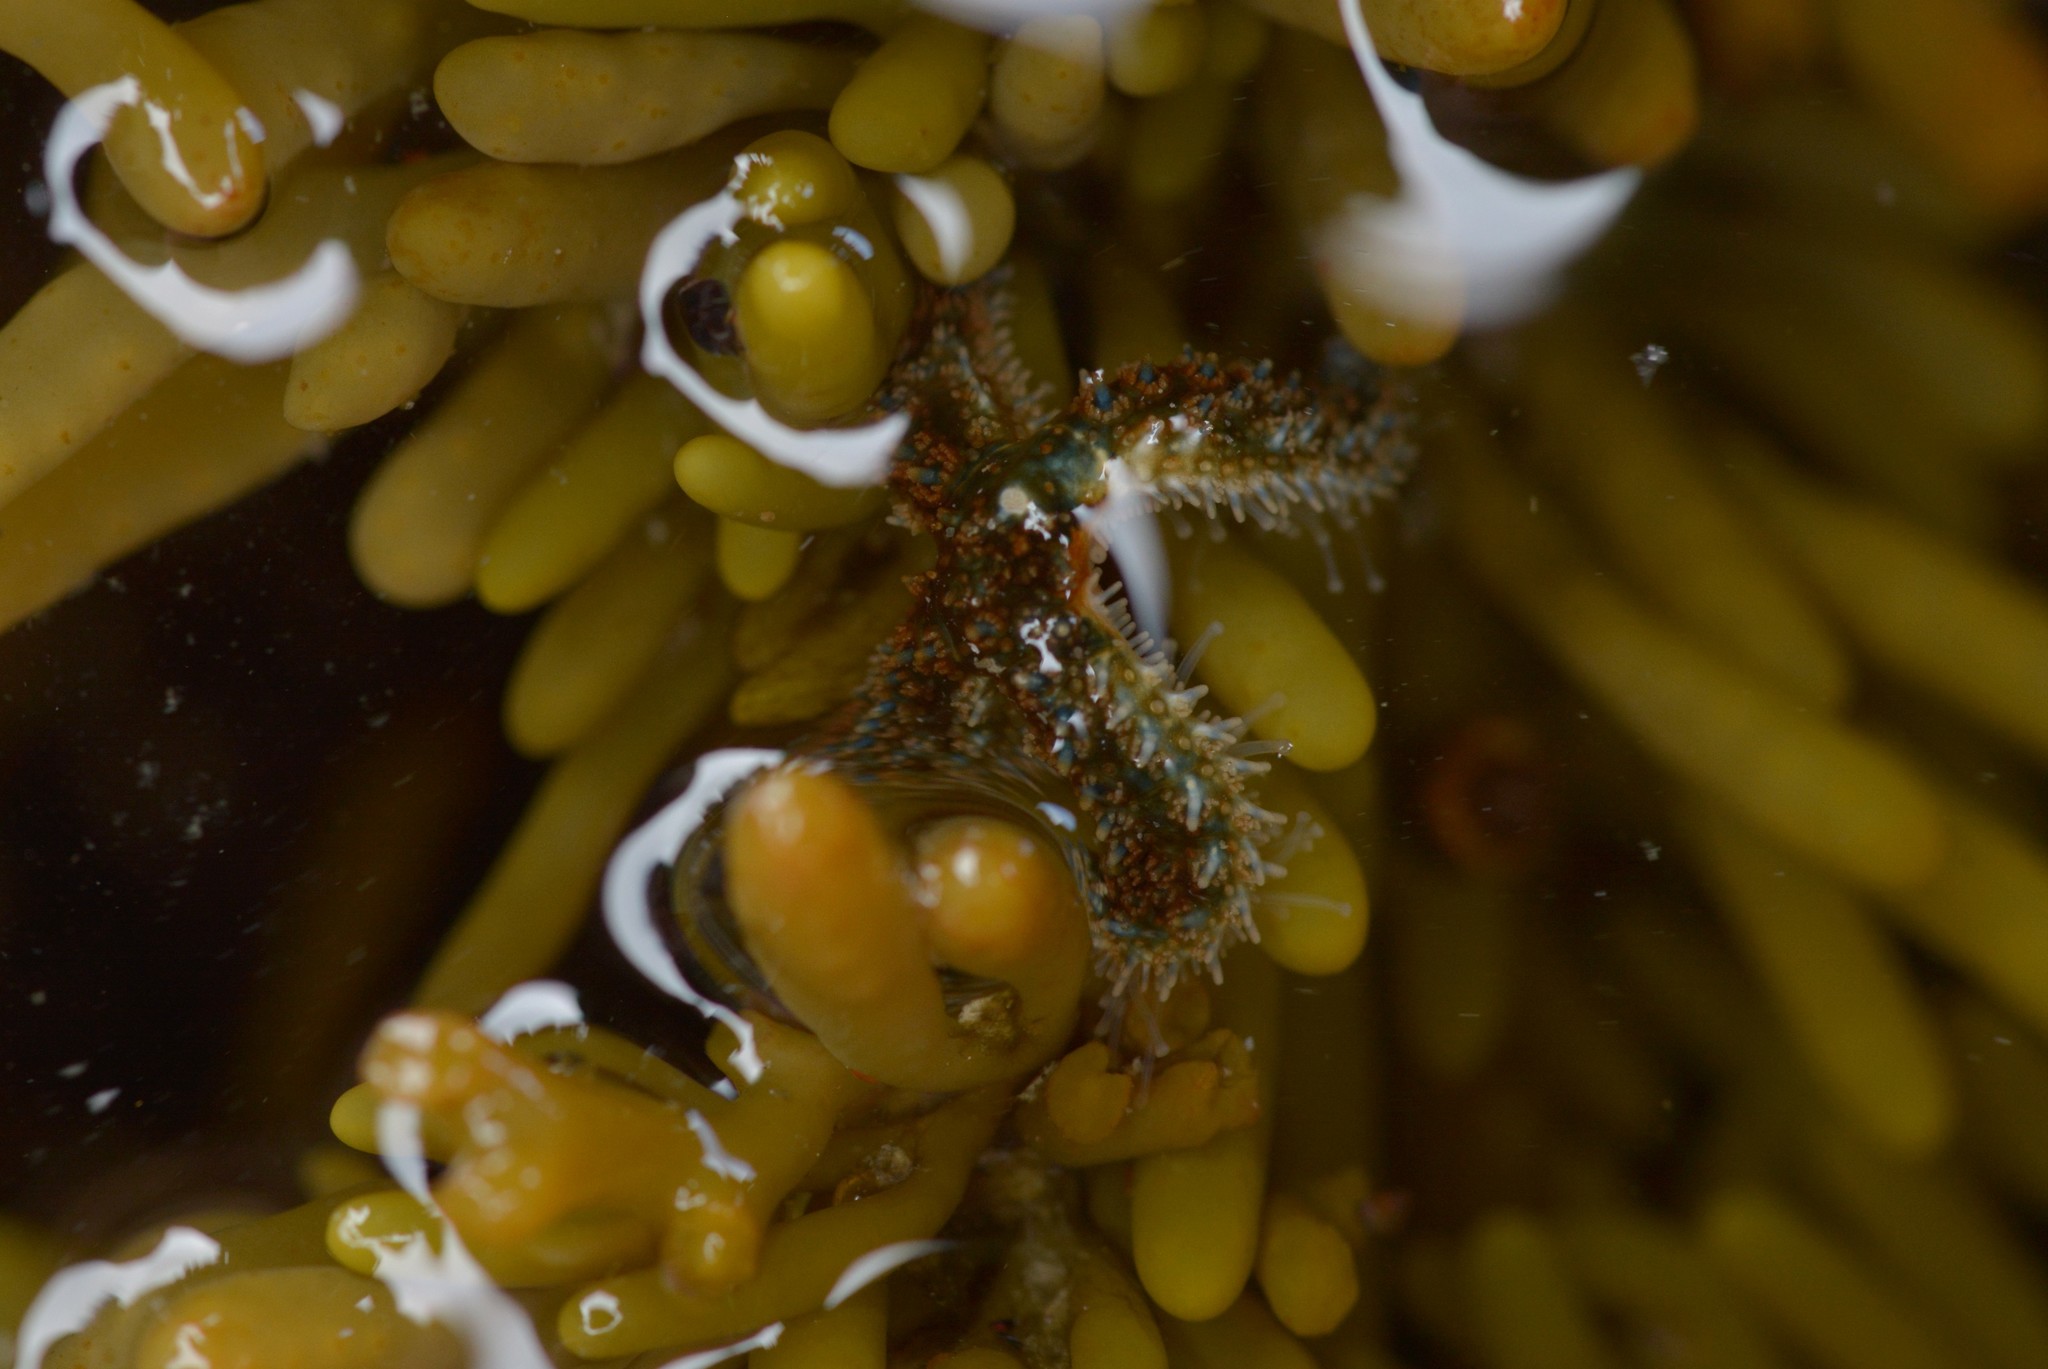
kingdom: Animalia
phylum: Echinodermata
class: Asteroidea
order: Forcipulatida
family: Asteriidae
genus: Coscinasterias
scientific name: Coscinasterias muricata
